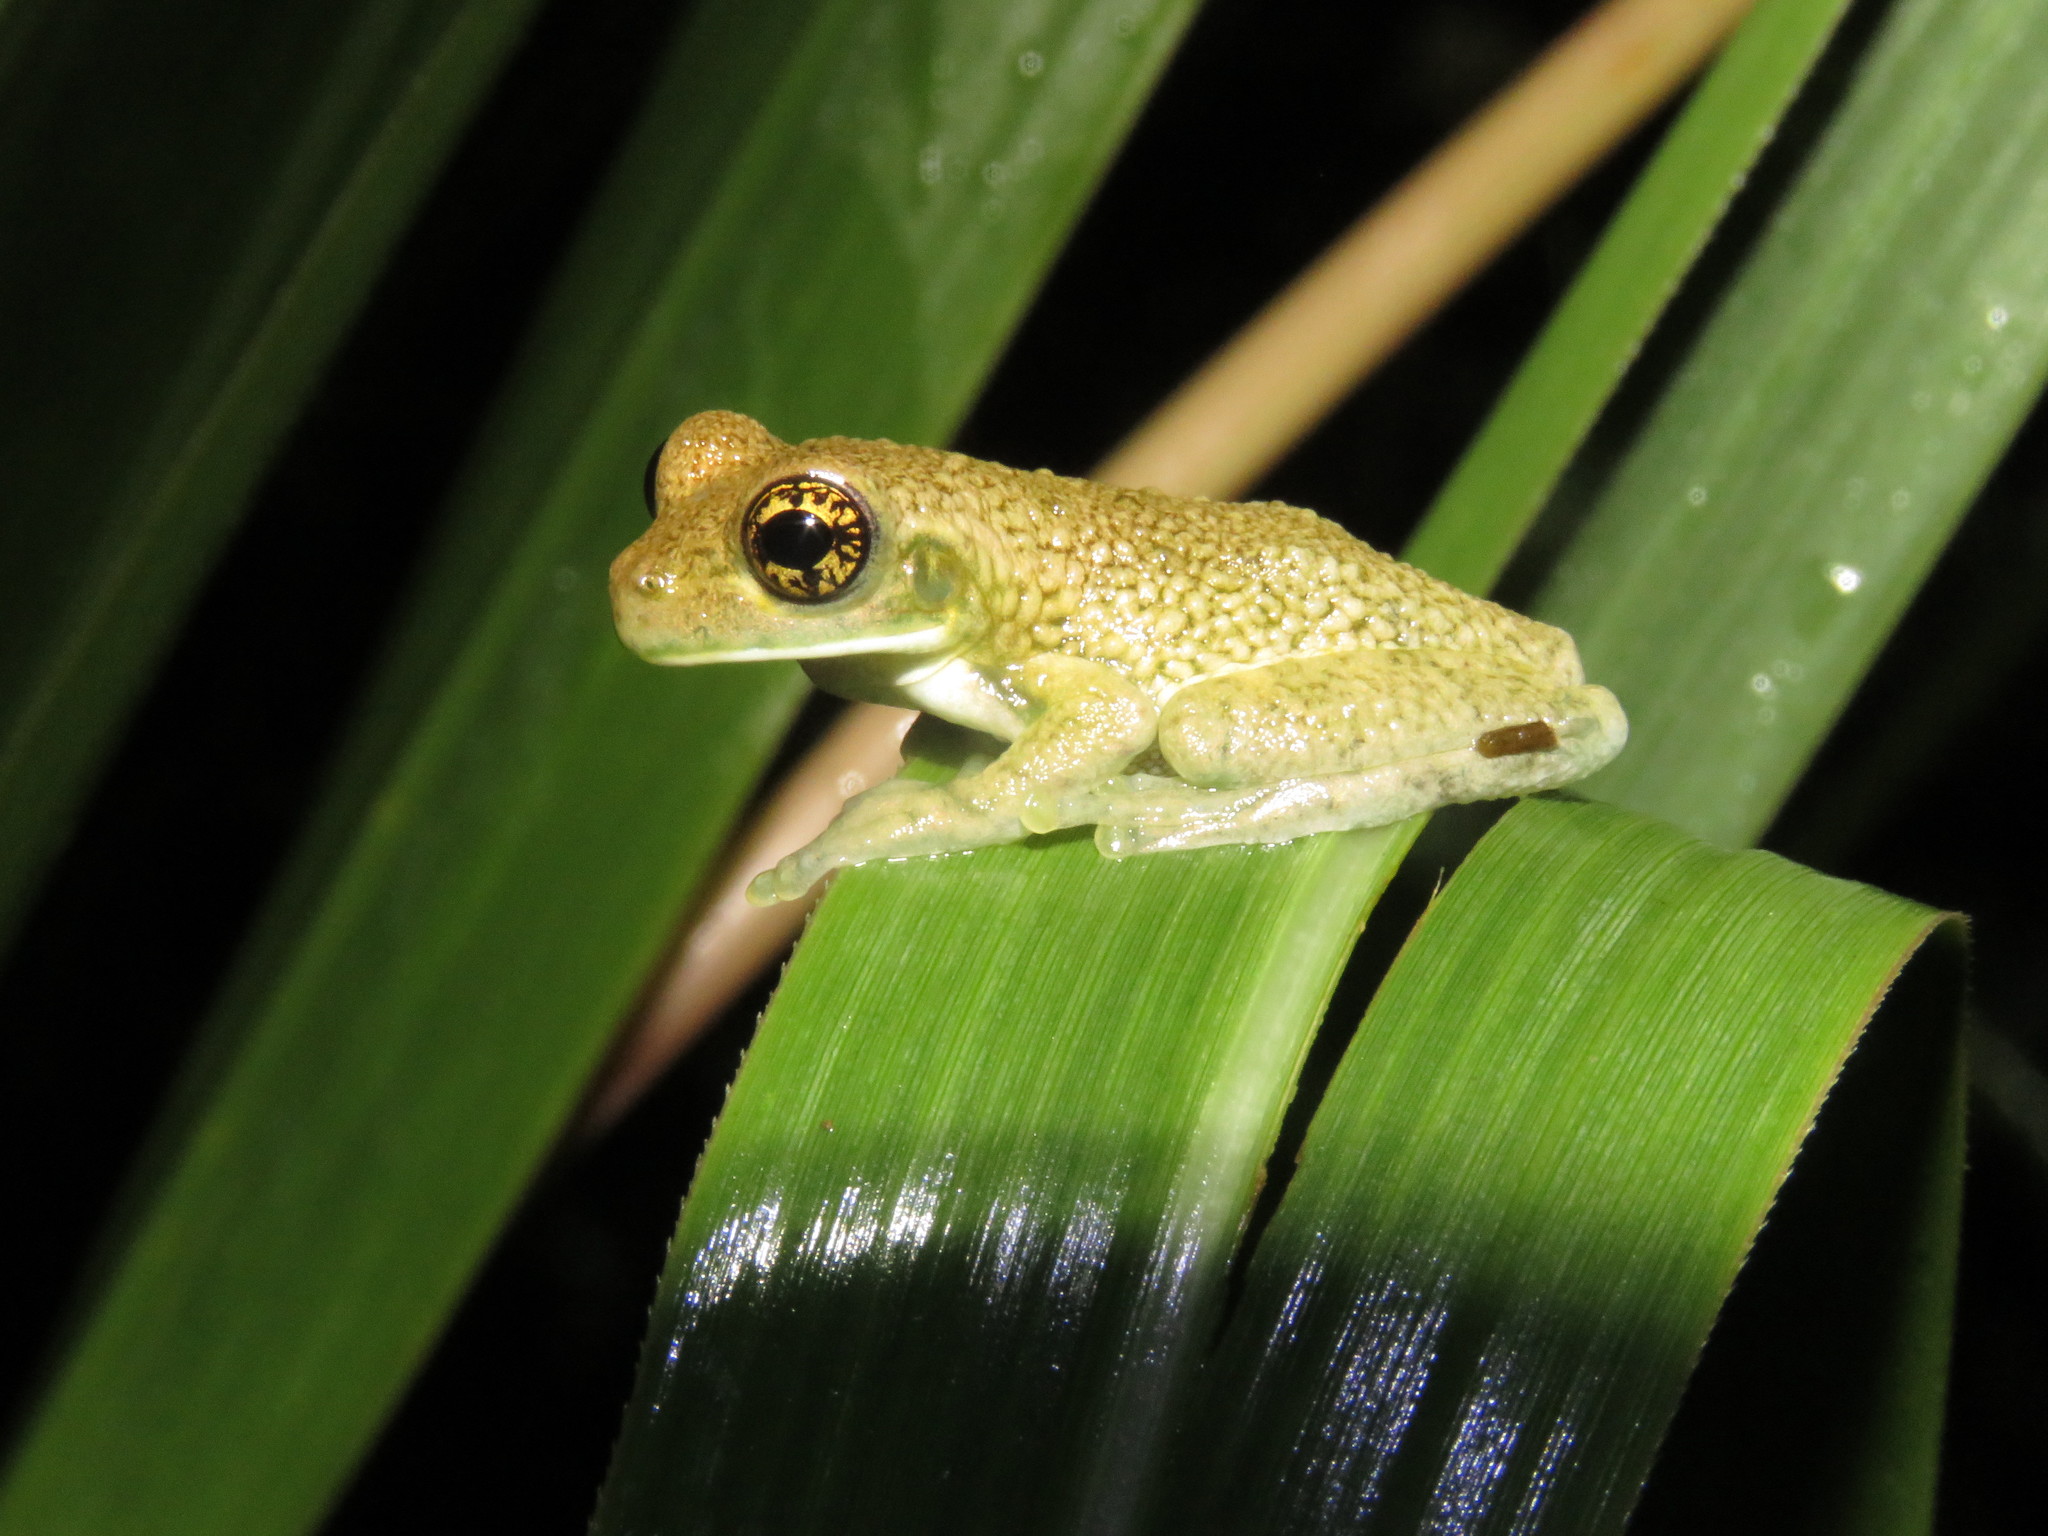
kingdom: Animalia
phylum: Chordata
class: Amphibia
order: Anura
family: Hylidae
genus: Trachycephalus
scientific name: Trachycephalus typhonius
